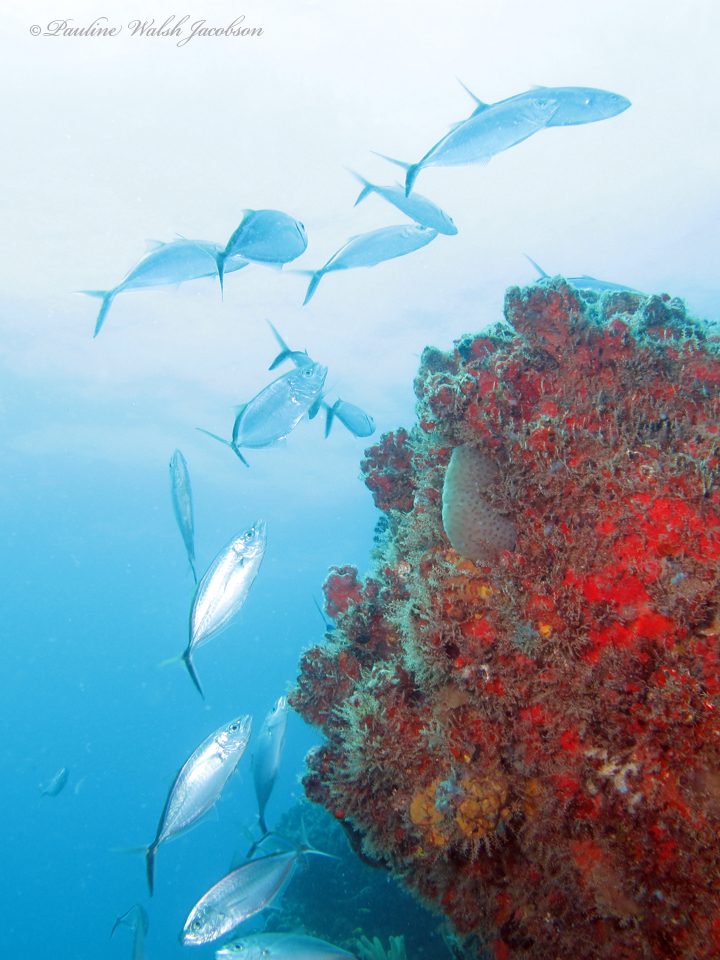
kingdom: Animalia
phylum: Chordata
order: Perciformes
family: Carangidae
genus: Caranx
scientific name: Caranx ruber
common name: Bar jack
